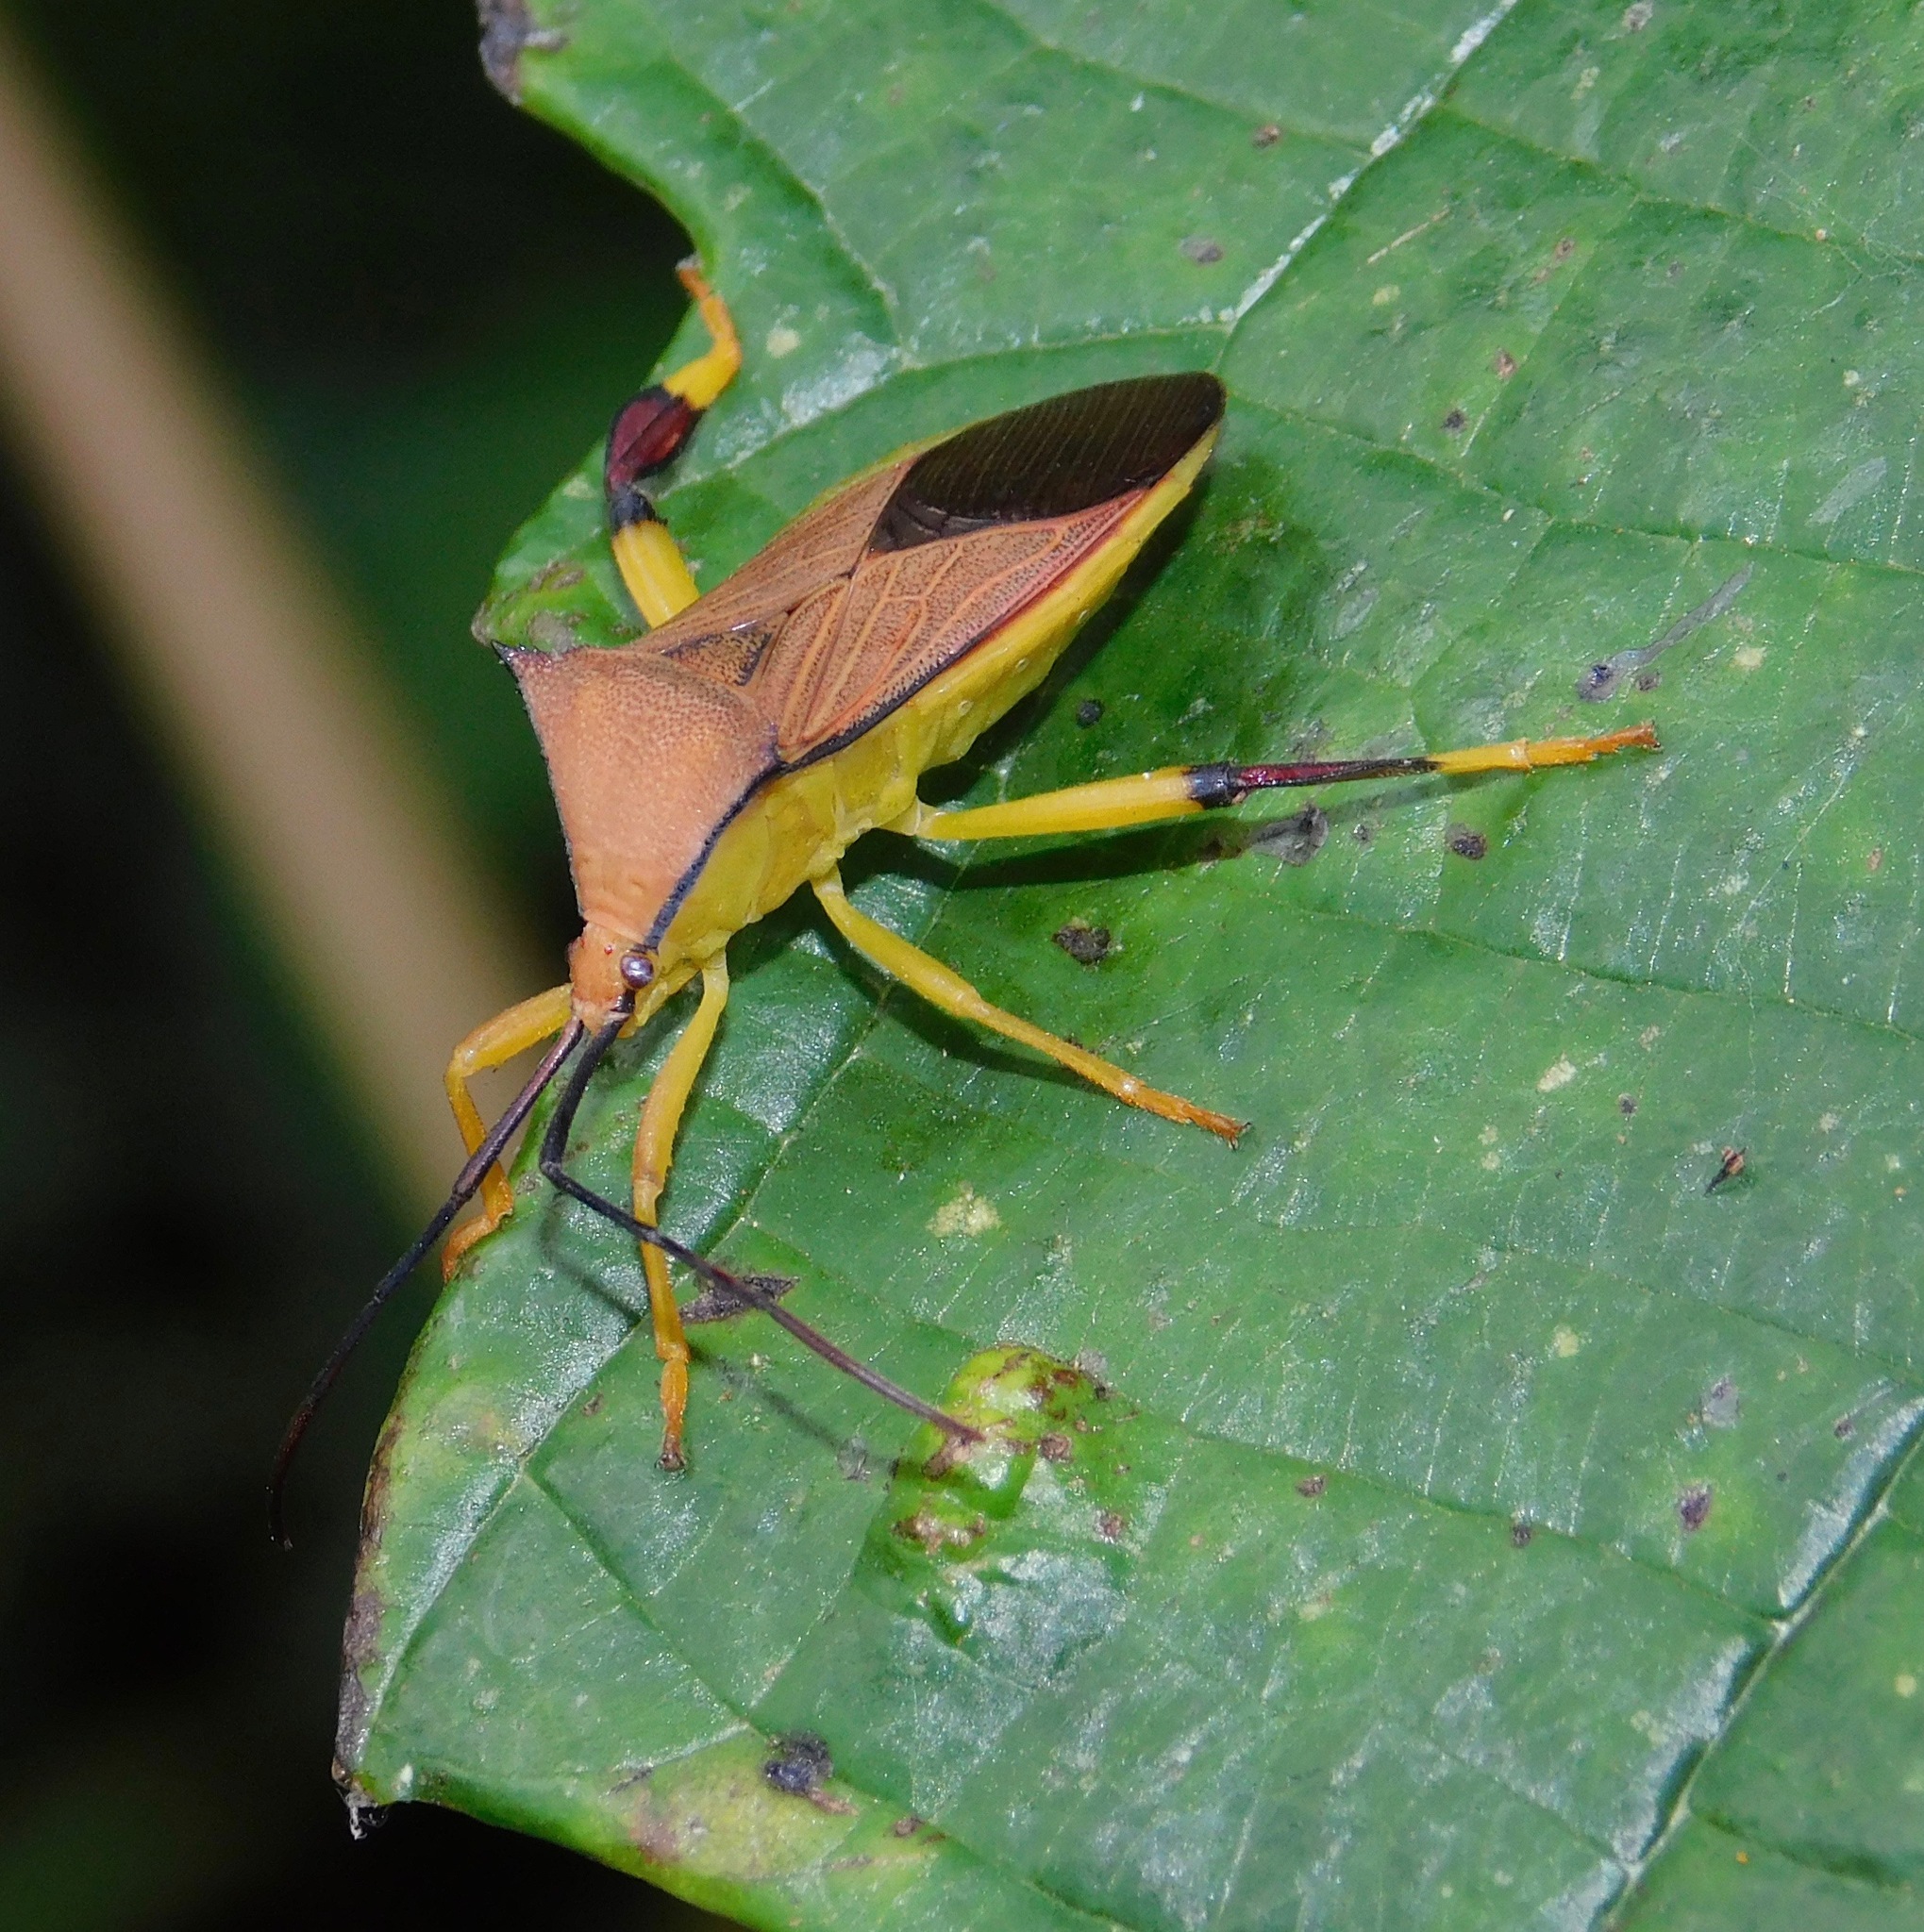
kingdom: Animalia
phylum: Arthropoda
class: Insecta
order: Hemiptera
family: Coreidae
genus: Melucha
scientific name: Melucha acutispina
